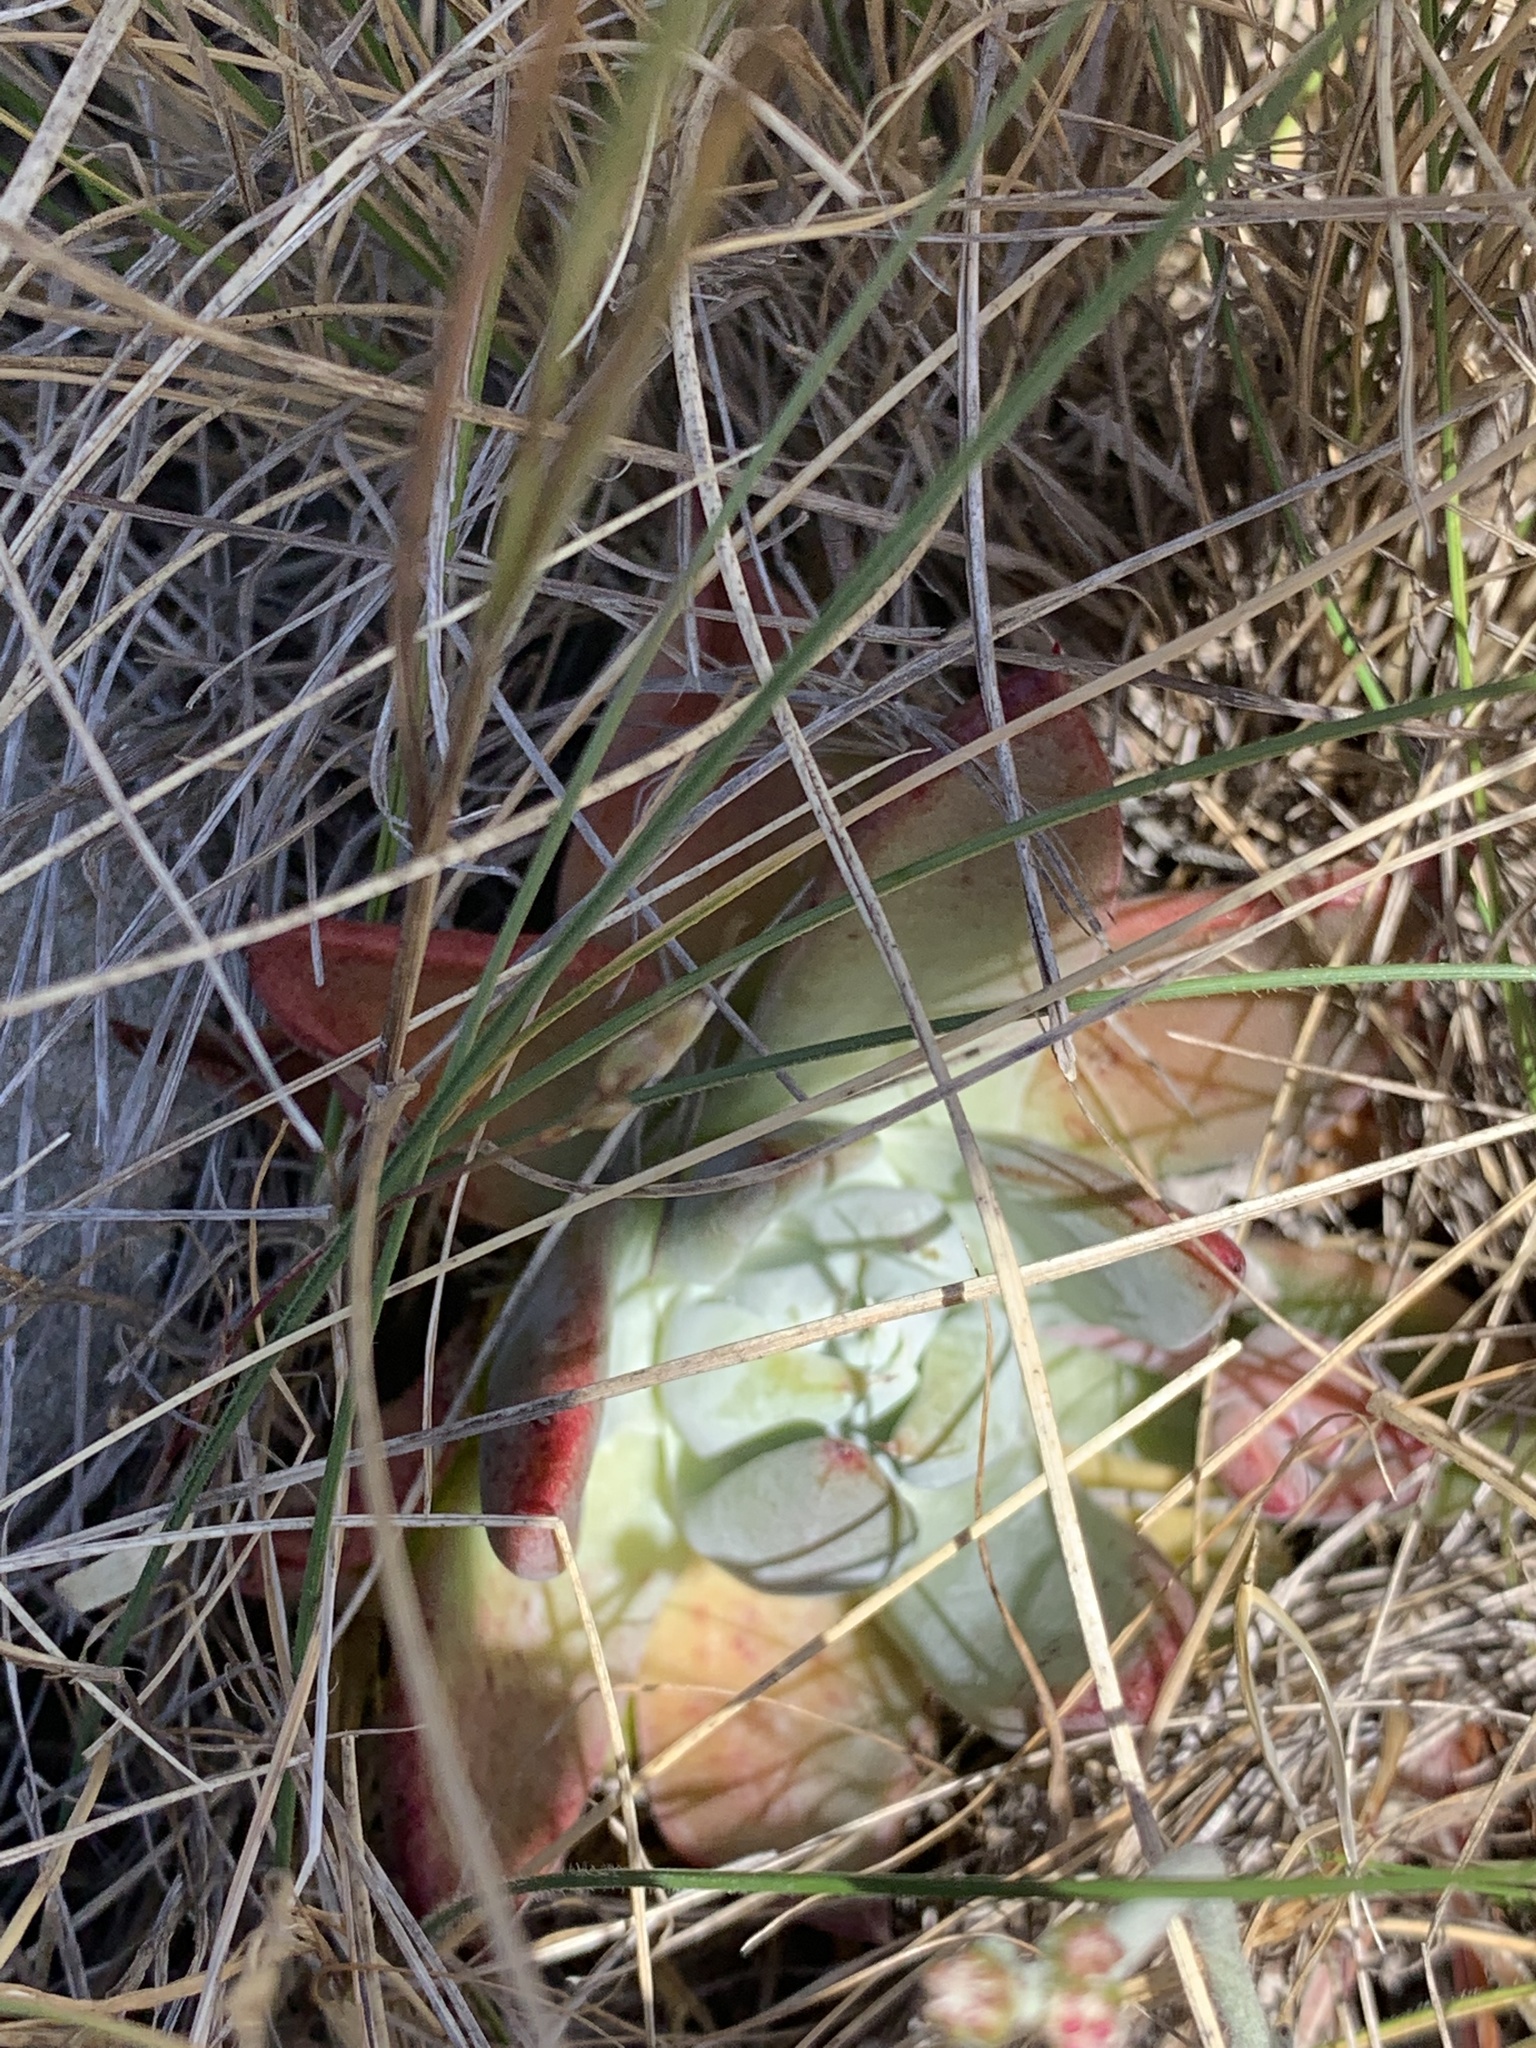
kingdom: Plantae
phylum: Tracheophyta
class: Magnoliopsida
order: Saxifragales
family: Crassulaceae
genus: Dudleya
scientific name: Dudleya farinosa
